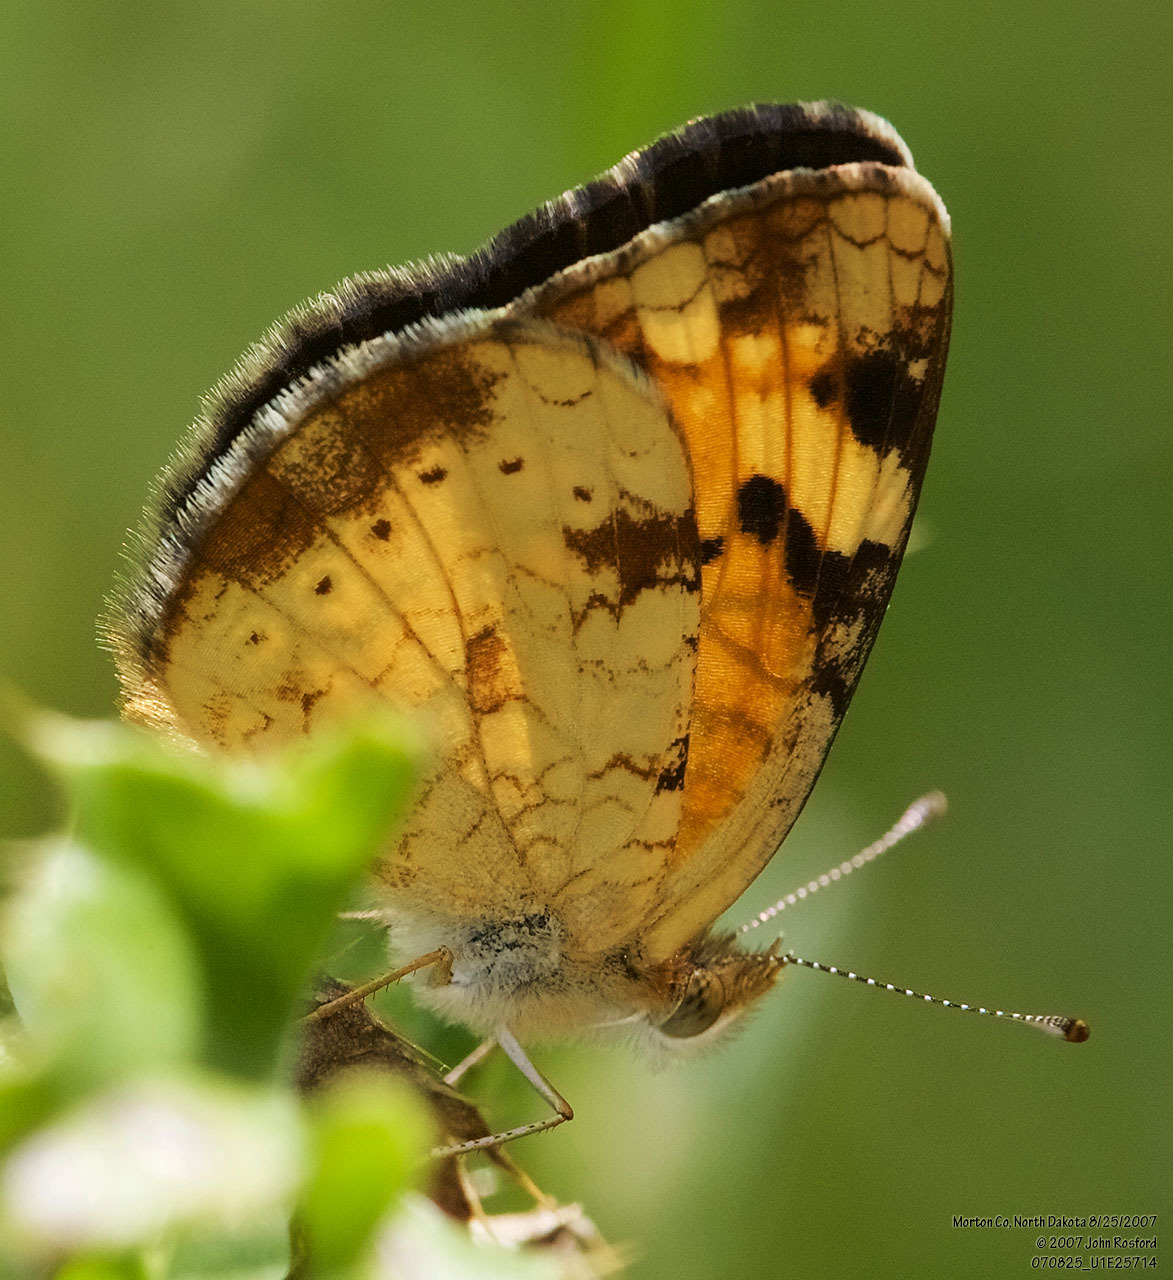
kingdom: Animalia
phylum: Arthropoda
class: Insecta
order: Lepidoptera
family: Nymphalidae
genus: Phyciodes
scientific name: Phyciodes tharos
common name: Pearl crescent
